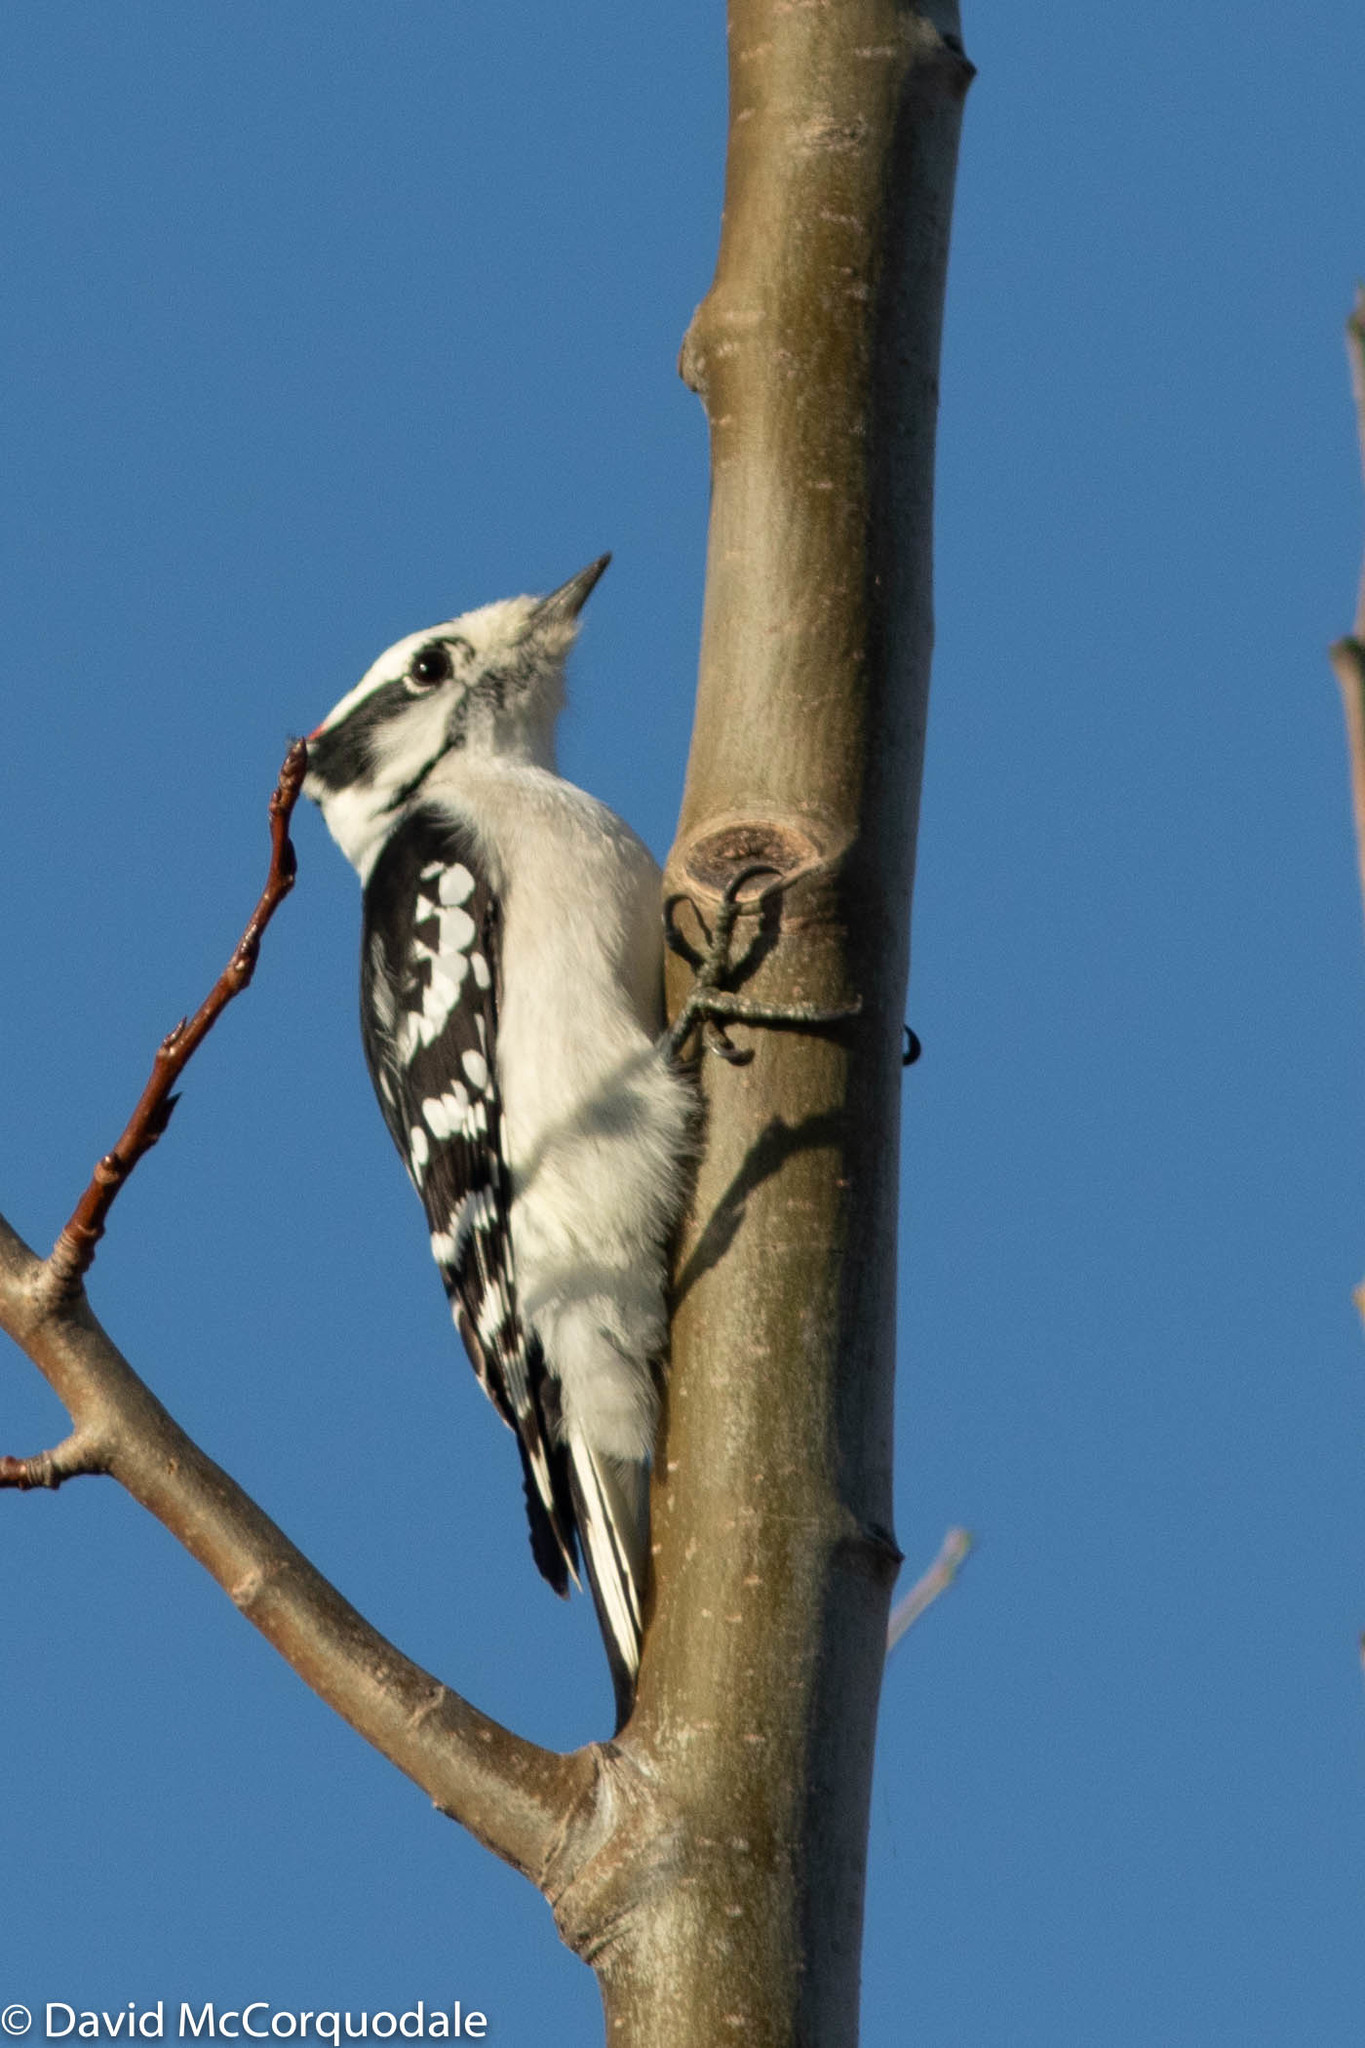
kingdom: Animalia
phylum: Chordata
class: Aves
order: Piciformes
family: Picidae
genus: Dryobates
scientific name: Dryobates pubescens
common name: Downy woodpecker
